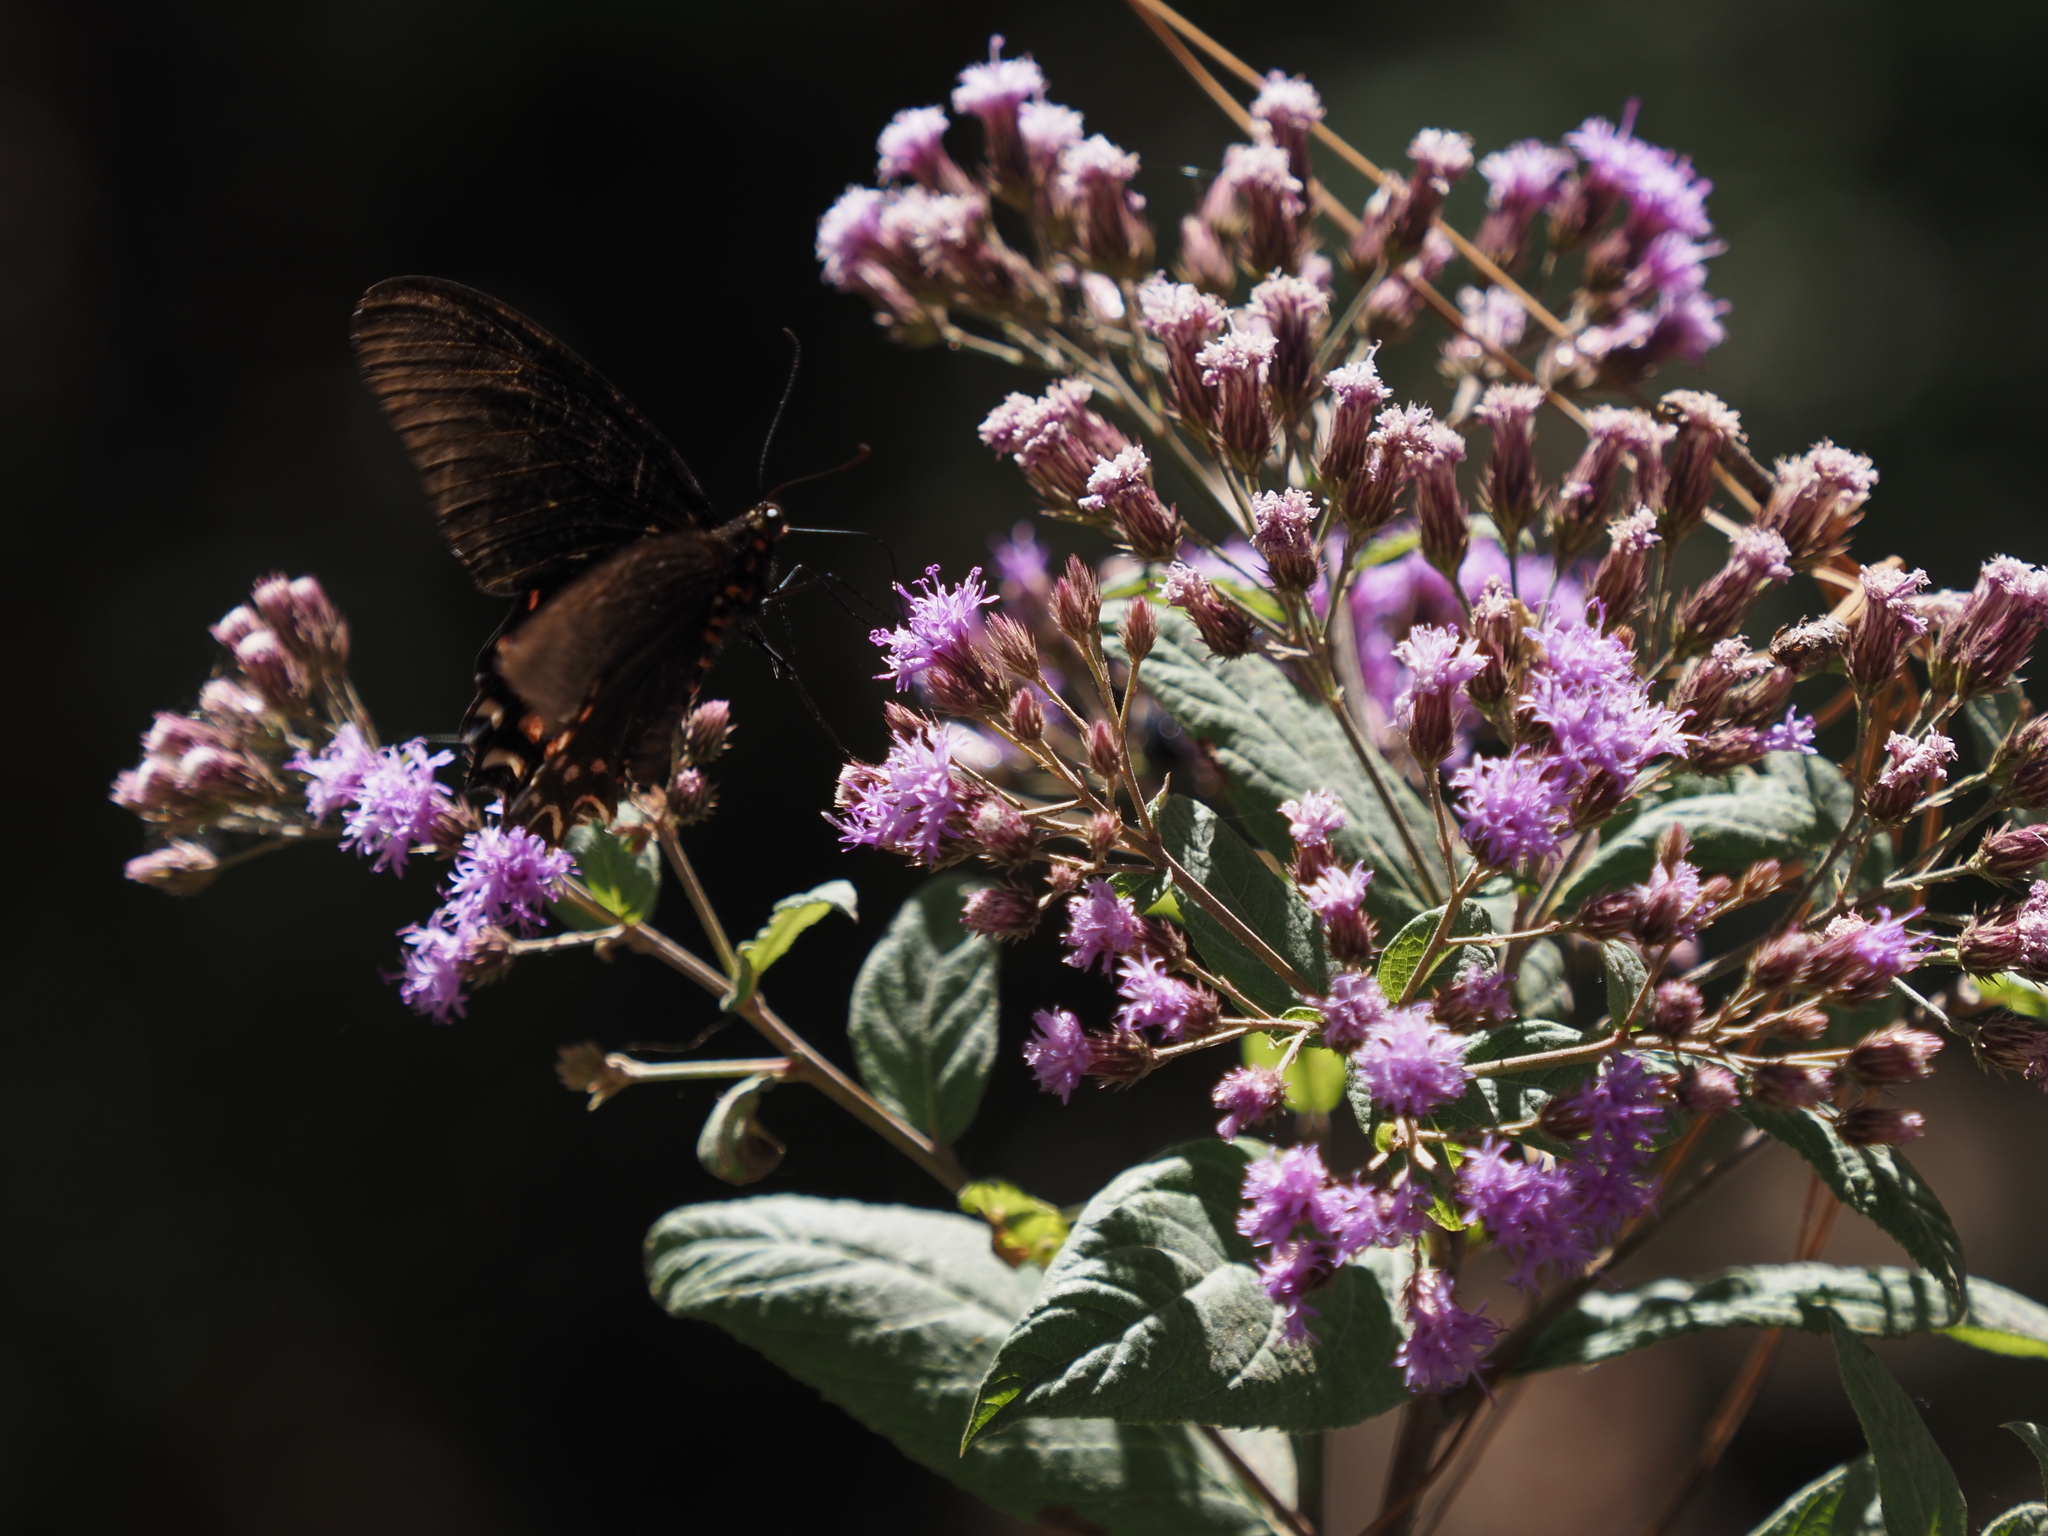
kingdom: Plantae
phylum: Tracheophyta
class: Magnoliopsida
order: Asterales
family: Asteraceae
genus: Vernonia
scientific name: Vernonia bealliae
